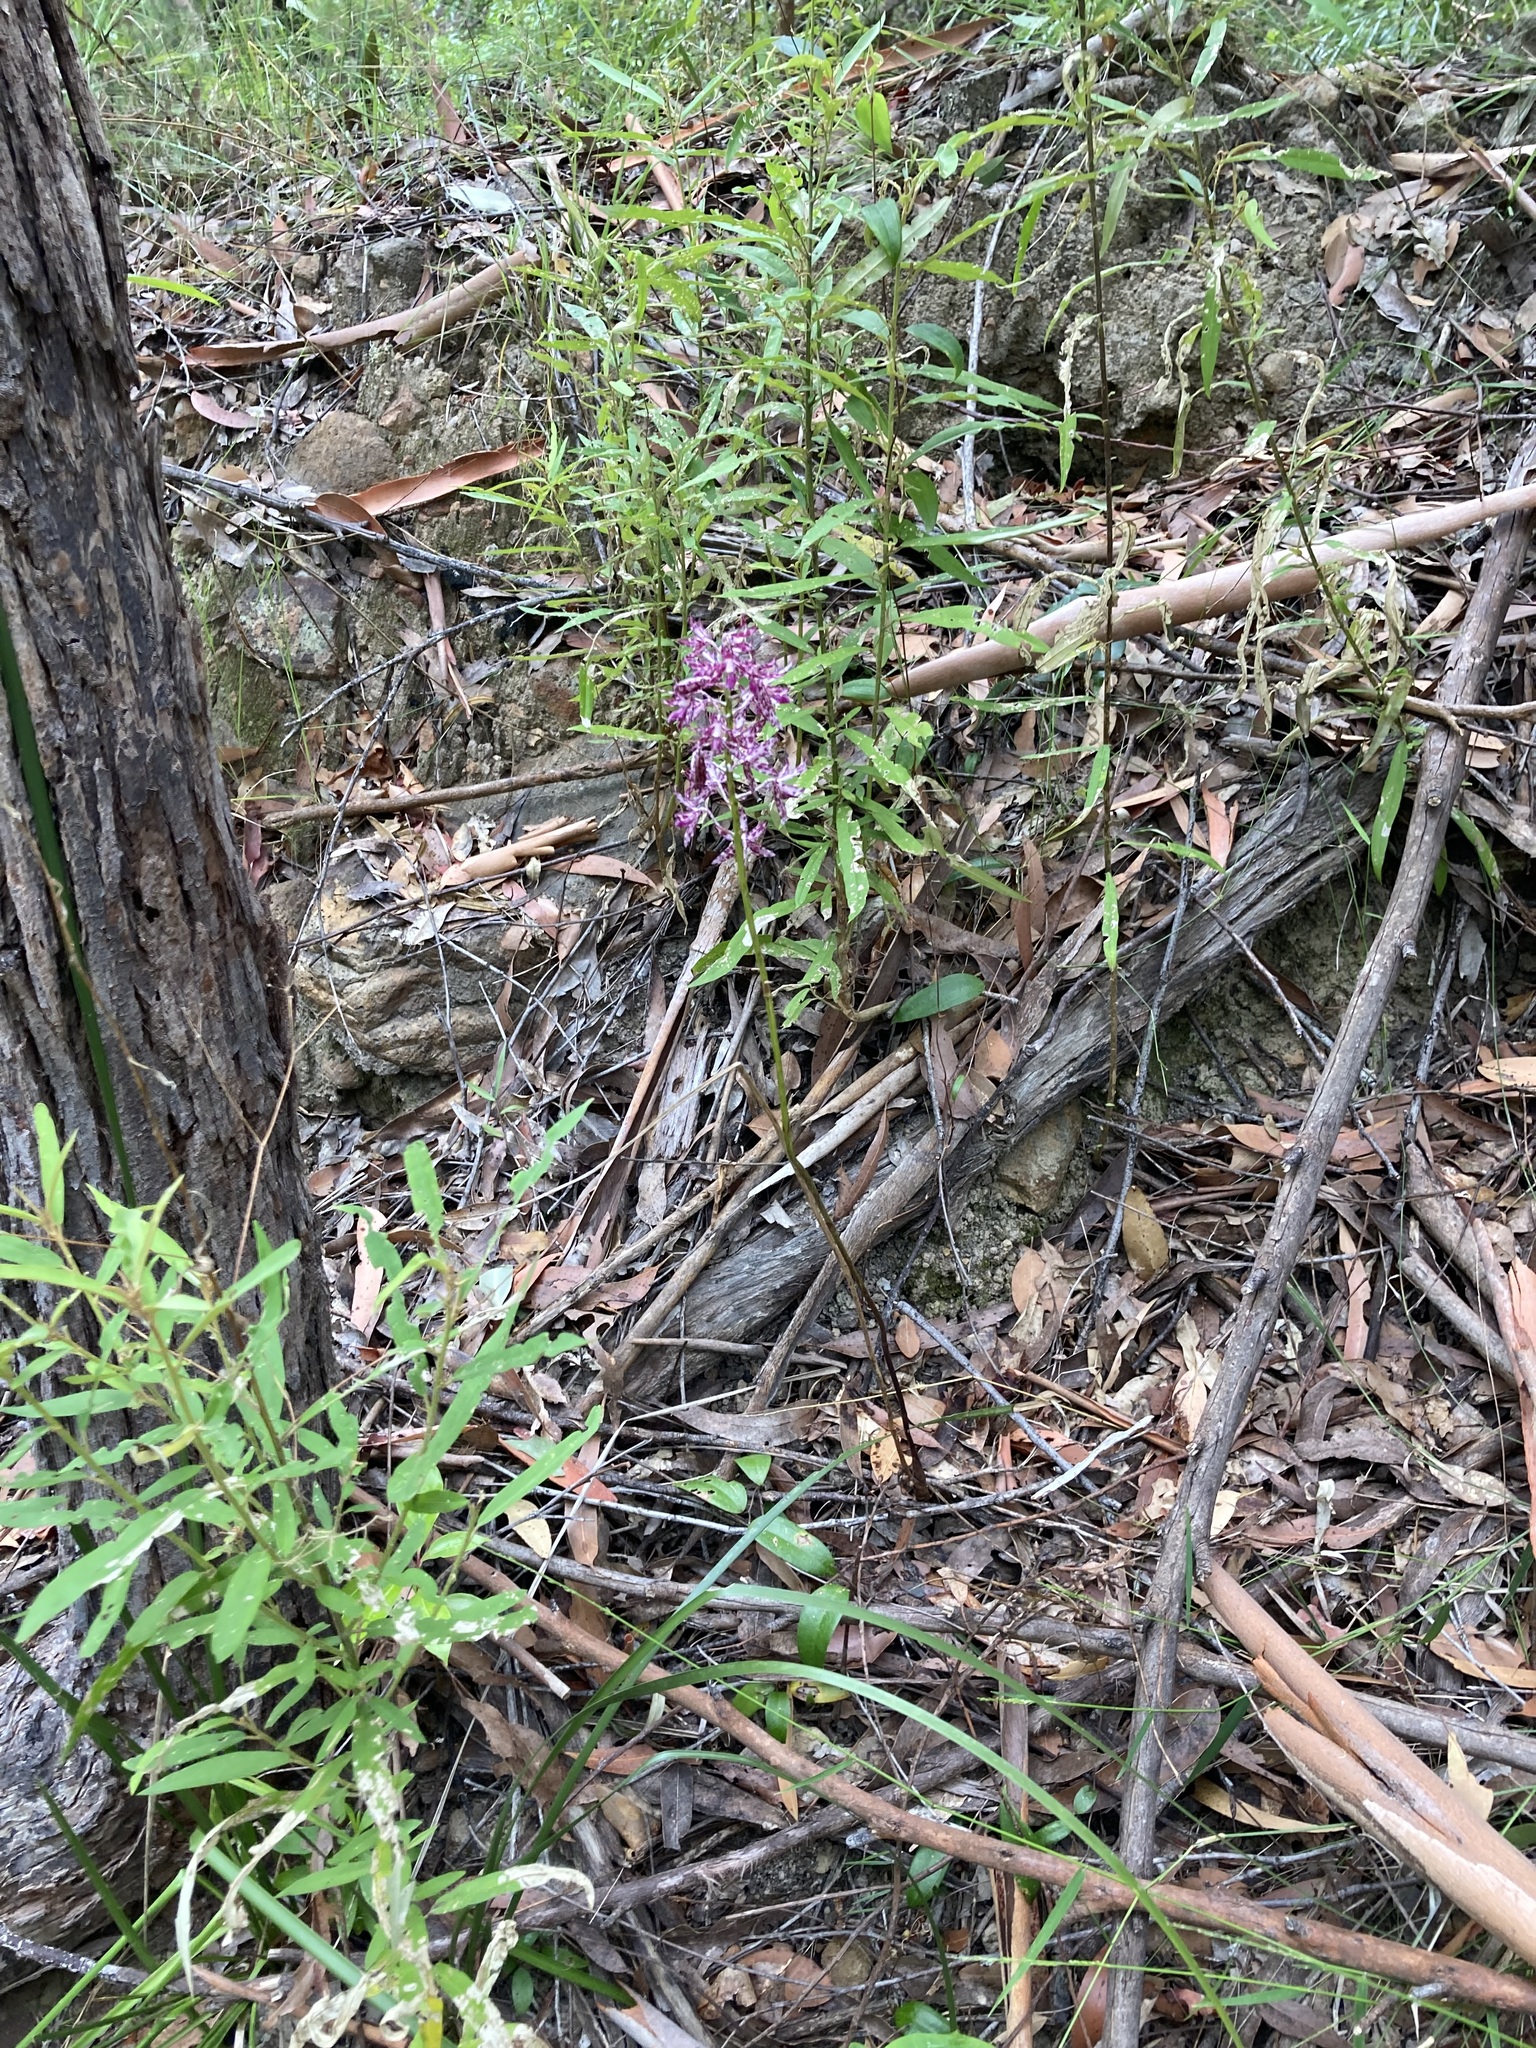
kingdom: Plantae
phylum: Tracheophyta
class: Liliopsida
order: Asparagales
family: Orchidaceae
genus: Dipodium
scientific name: Dipodium variegatum
